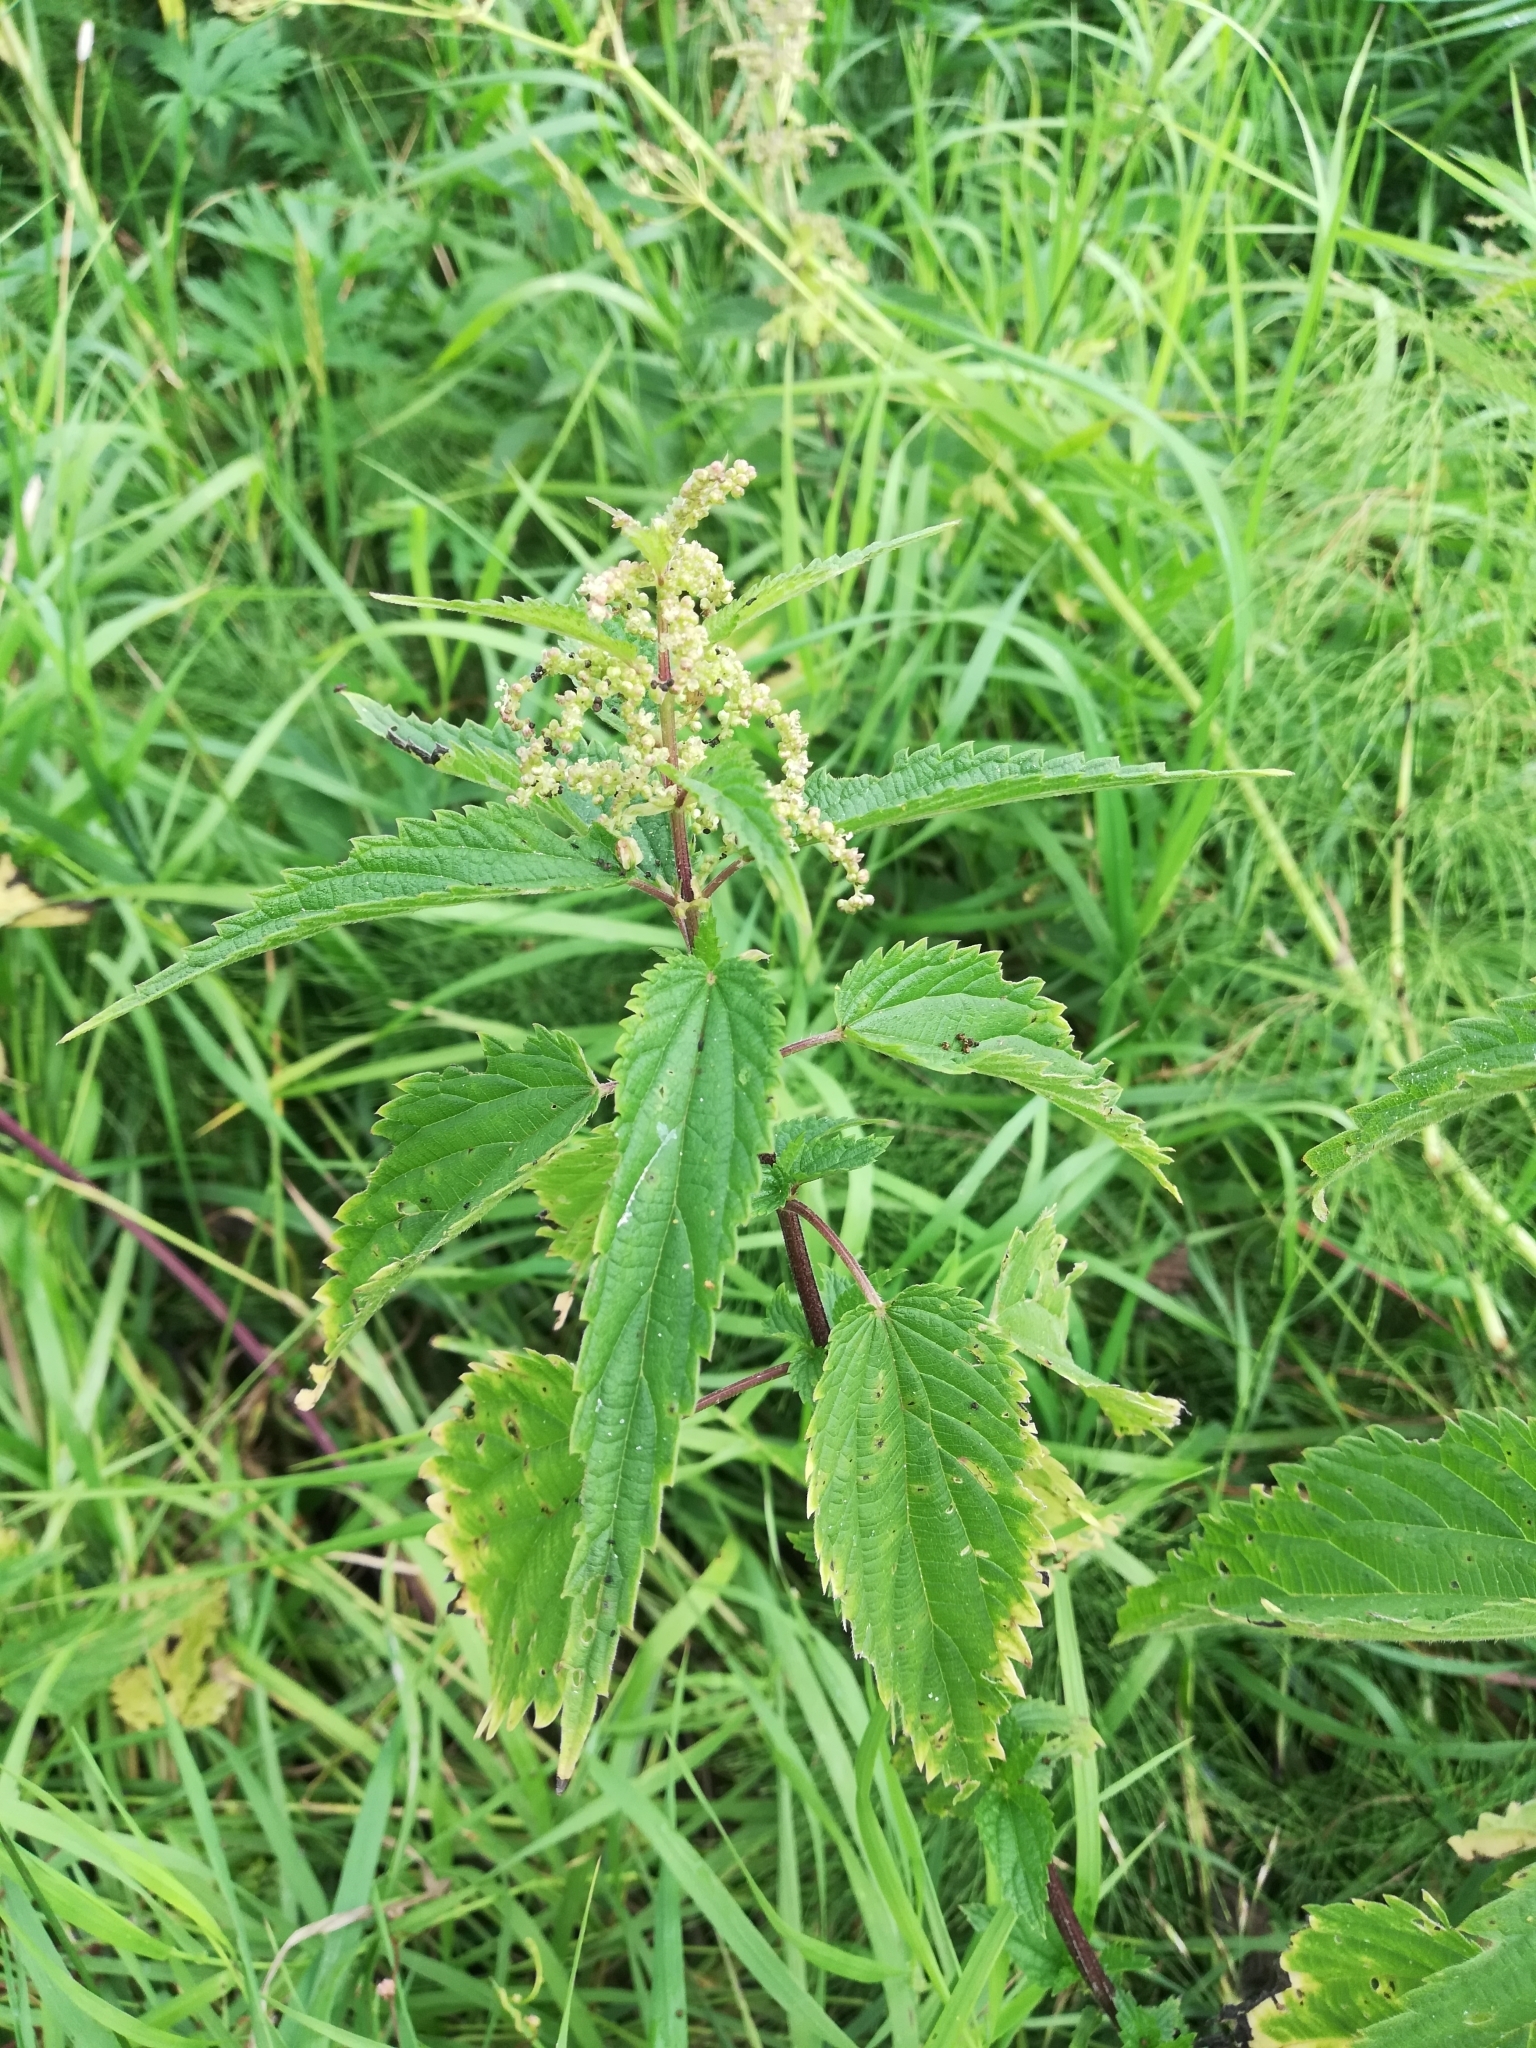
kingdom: Plantae
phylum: Tracheophyta
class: Magnoliopsida
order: Rosales
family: Urticaceae
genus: Urtica
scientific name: Urtica dioica
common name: Common nettle
